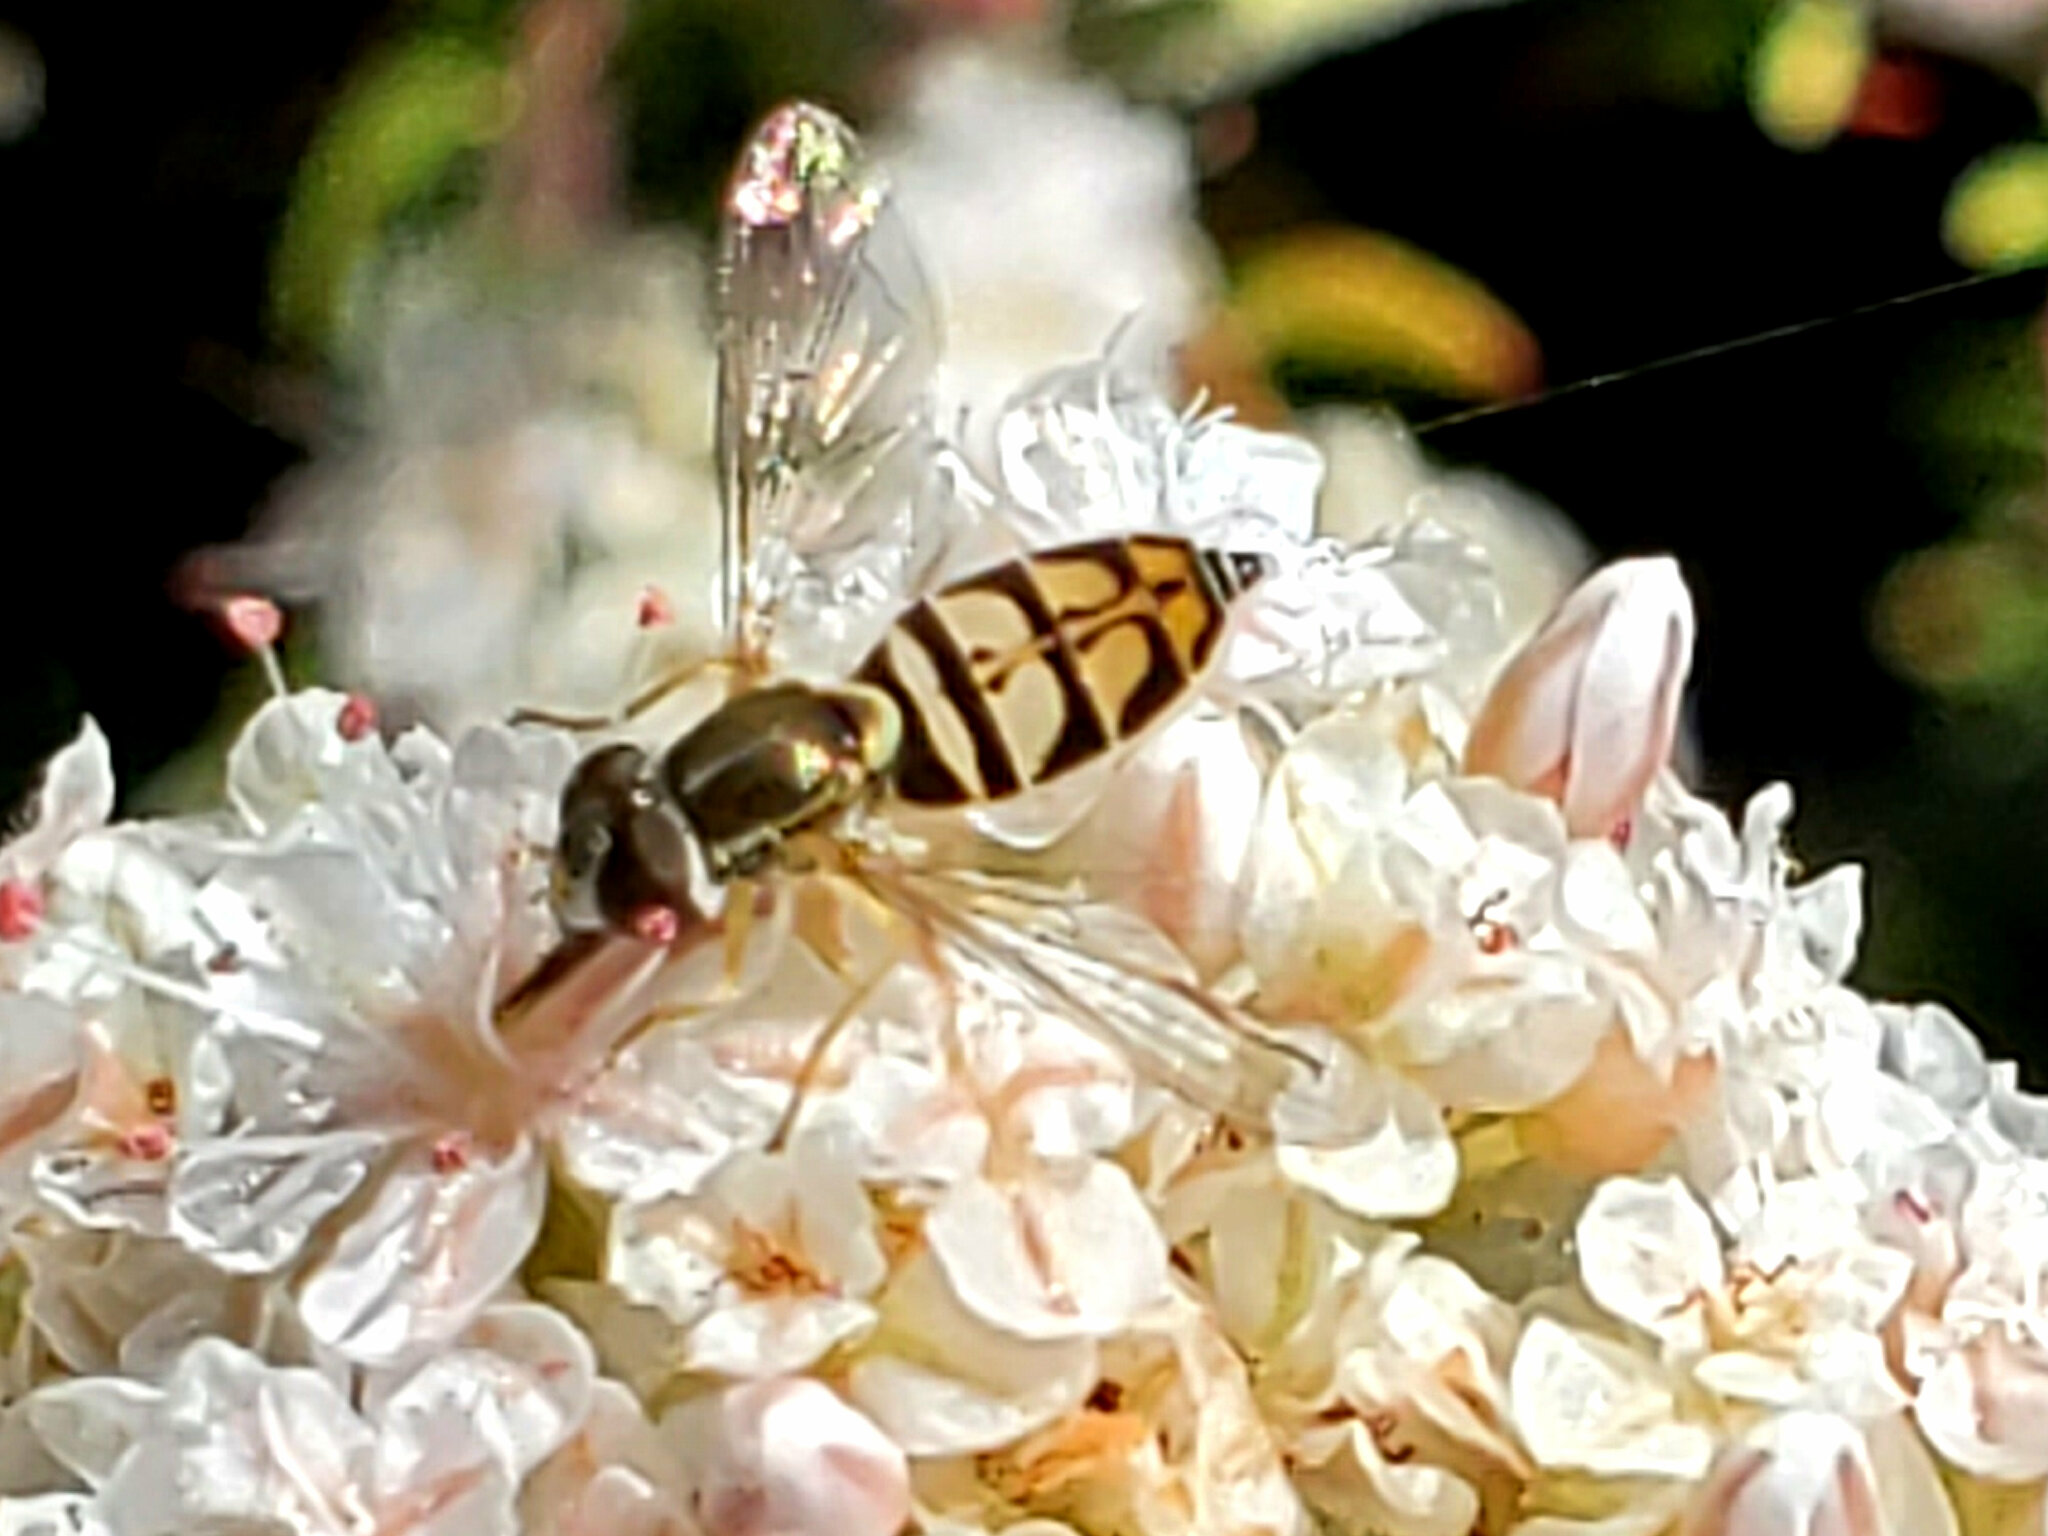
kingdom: Animalia
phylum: Arthropoda
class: Insecta
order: Diptera
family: Syrphidae
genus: Toxomerus
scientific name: Toxomerus marginatus
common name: Syrphid fly
